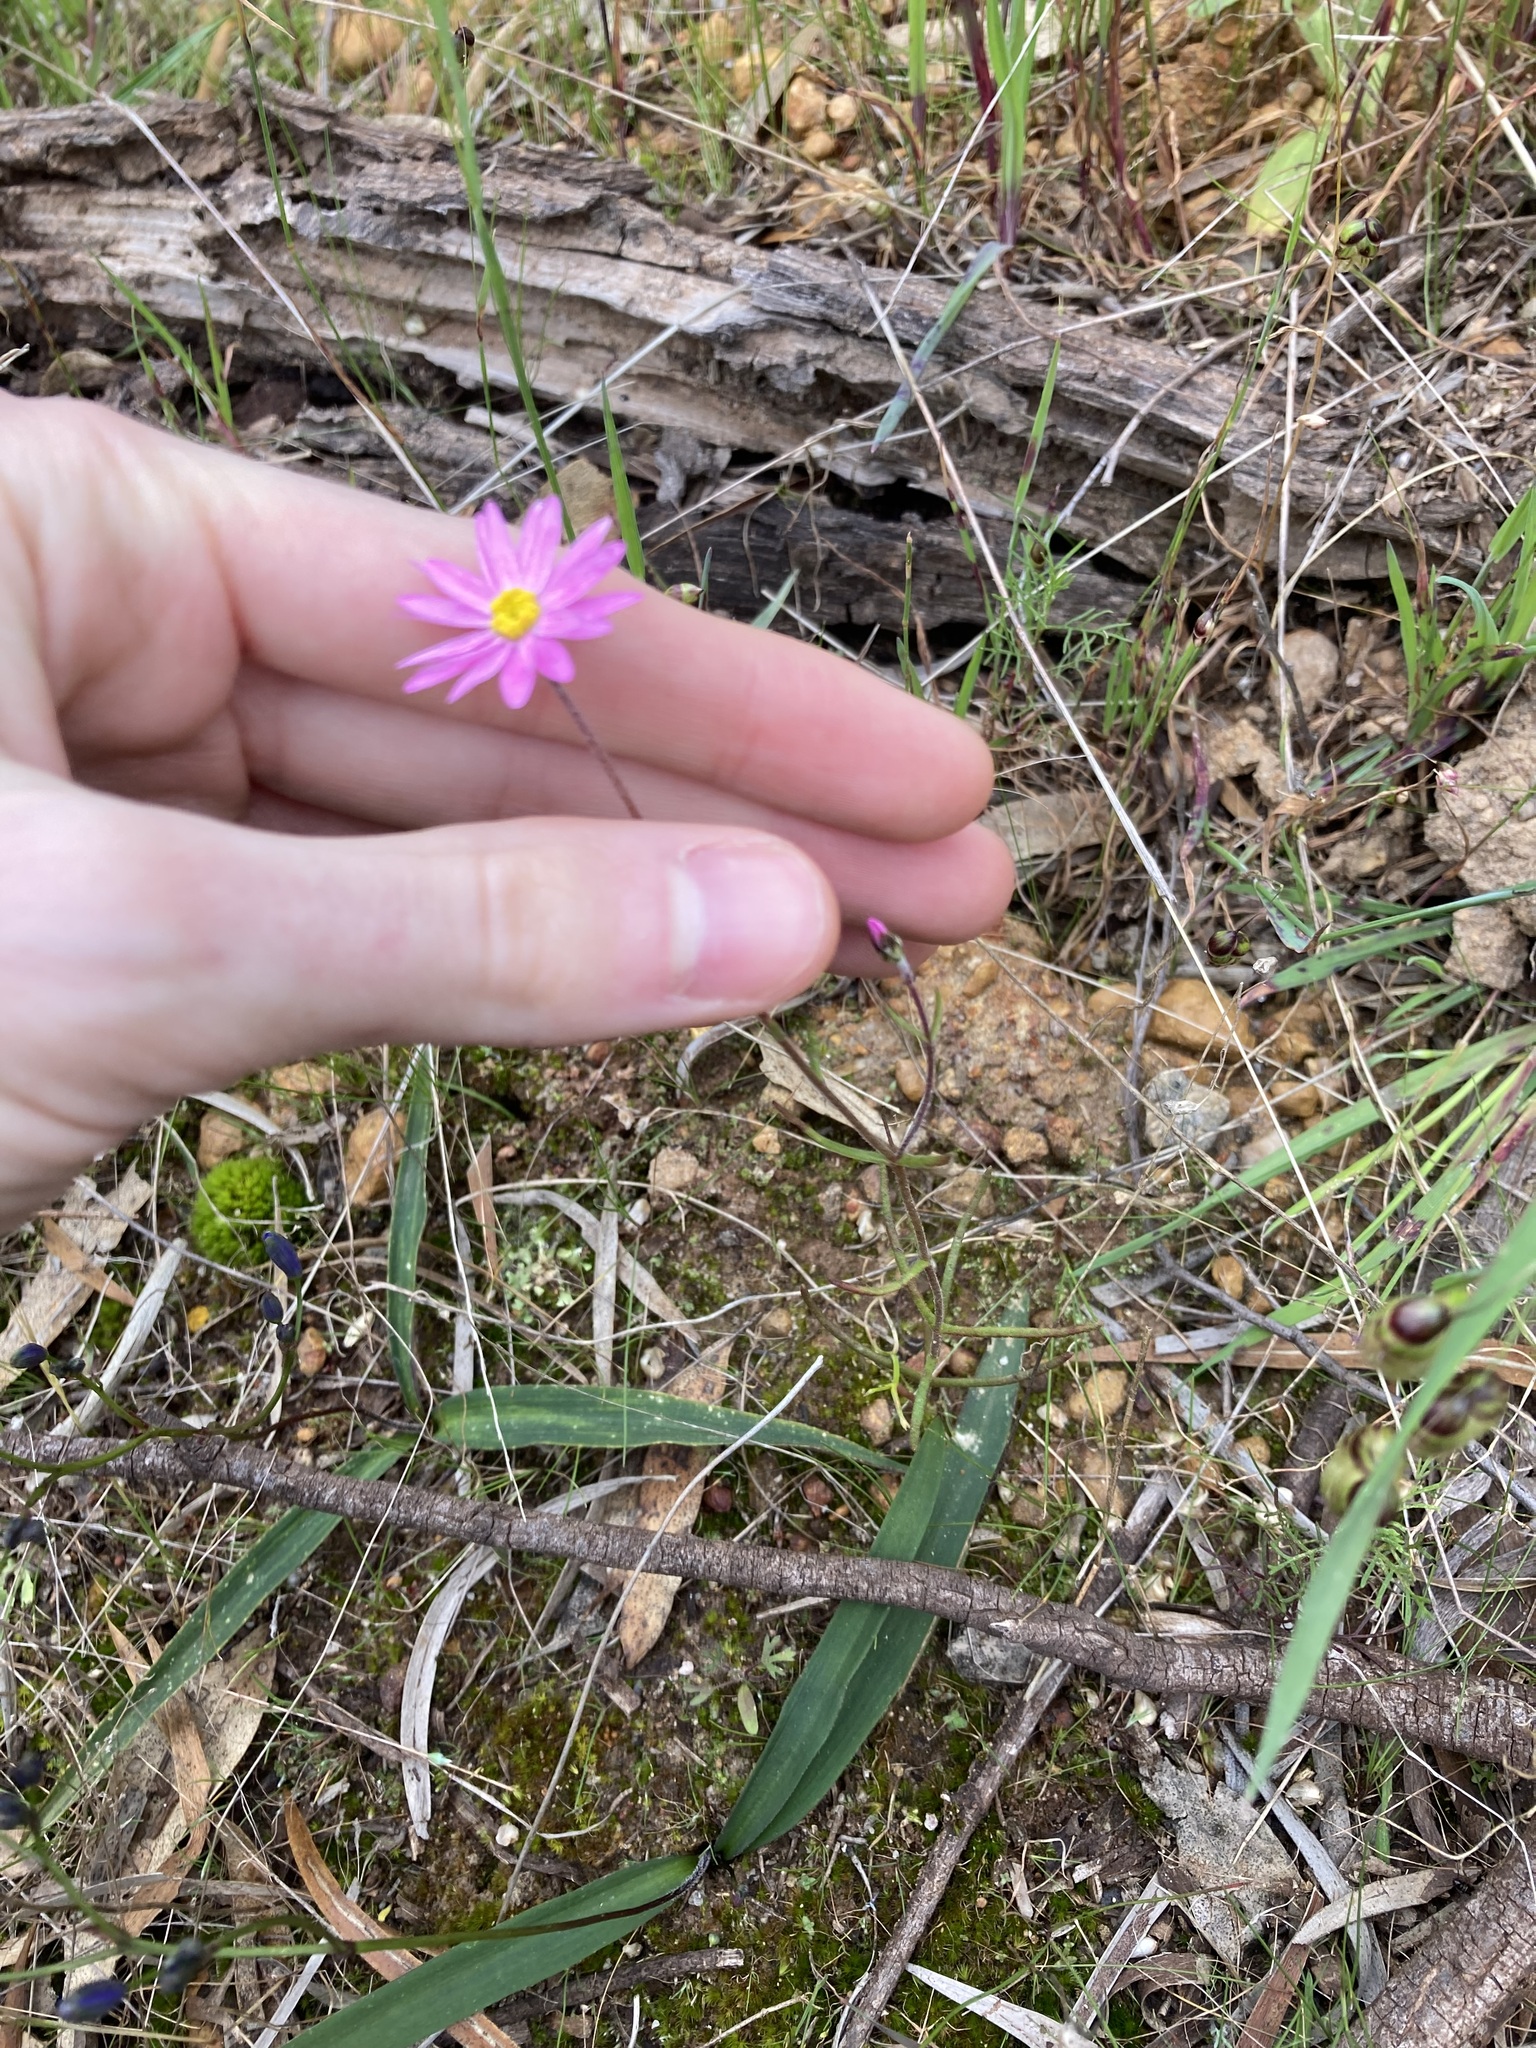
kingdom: Plantae
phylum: Tracheophyta
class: Magnoliopsida
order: Asterales
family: Asteraceae
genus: Lawrencella
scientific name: Lawrencella rosea
